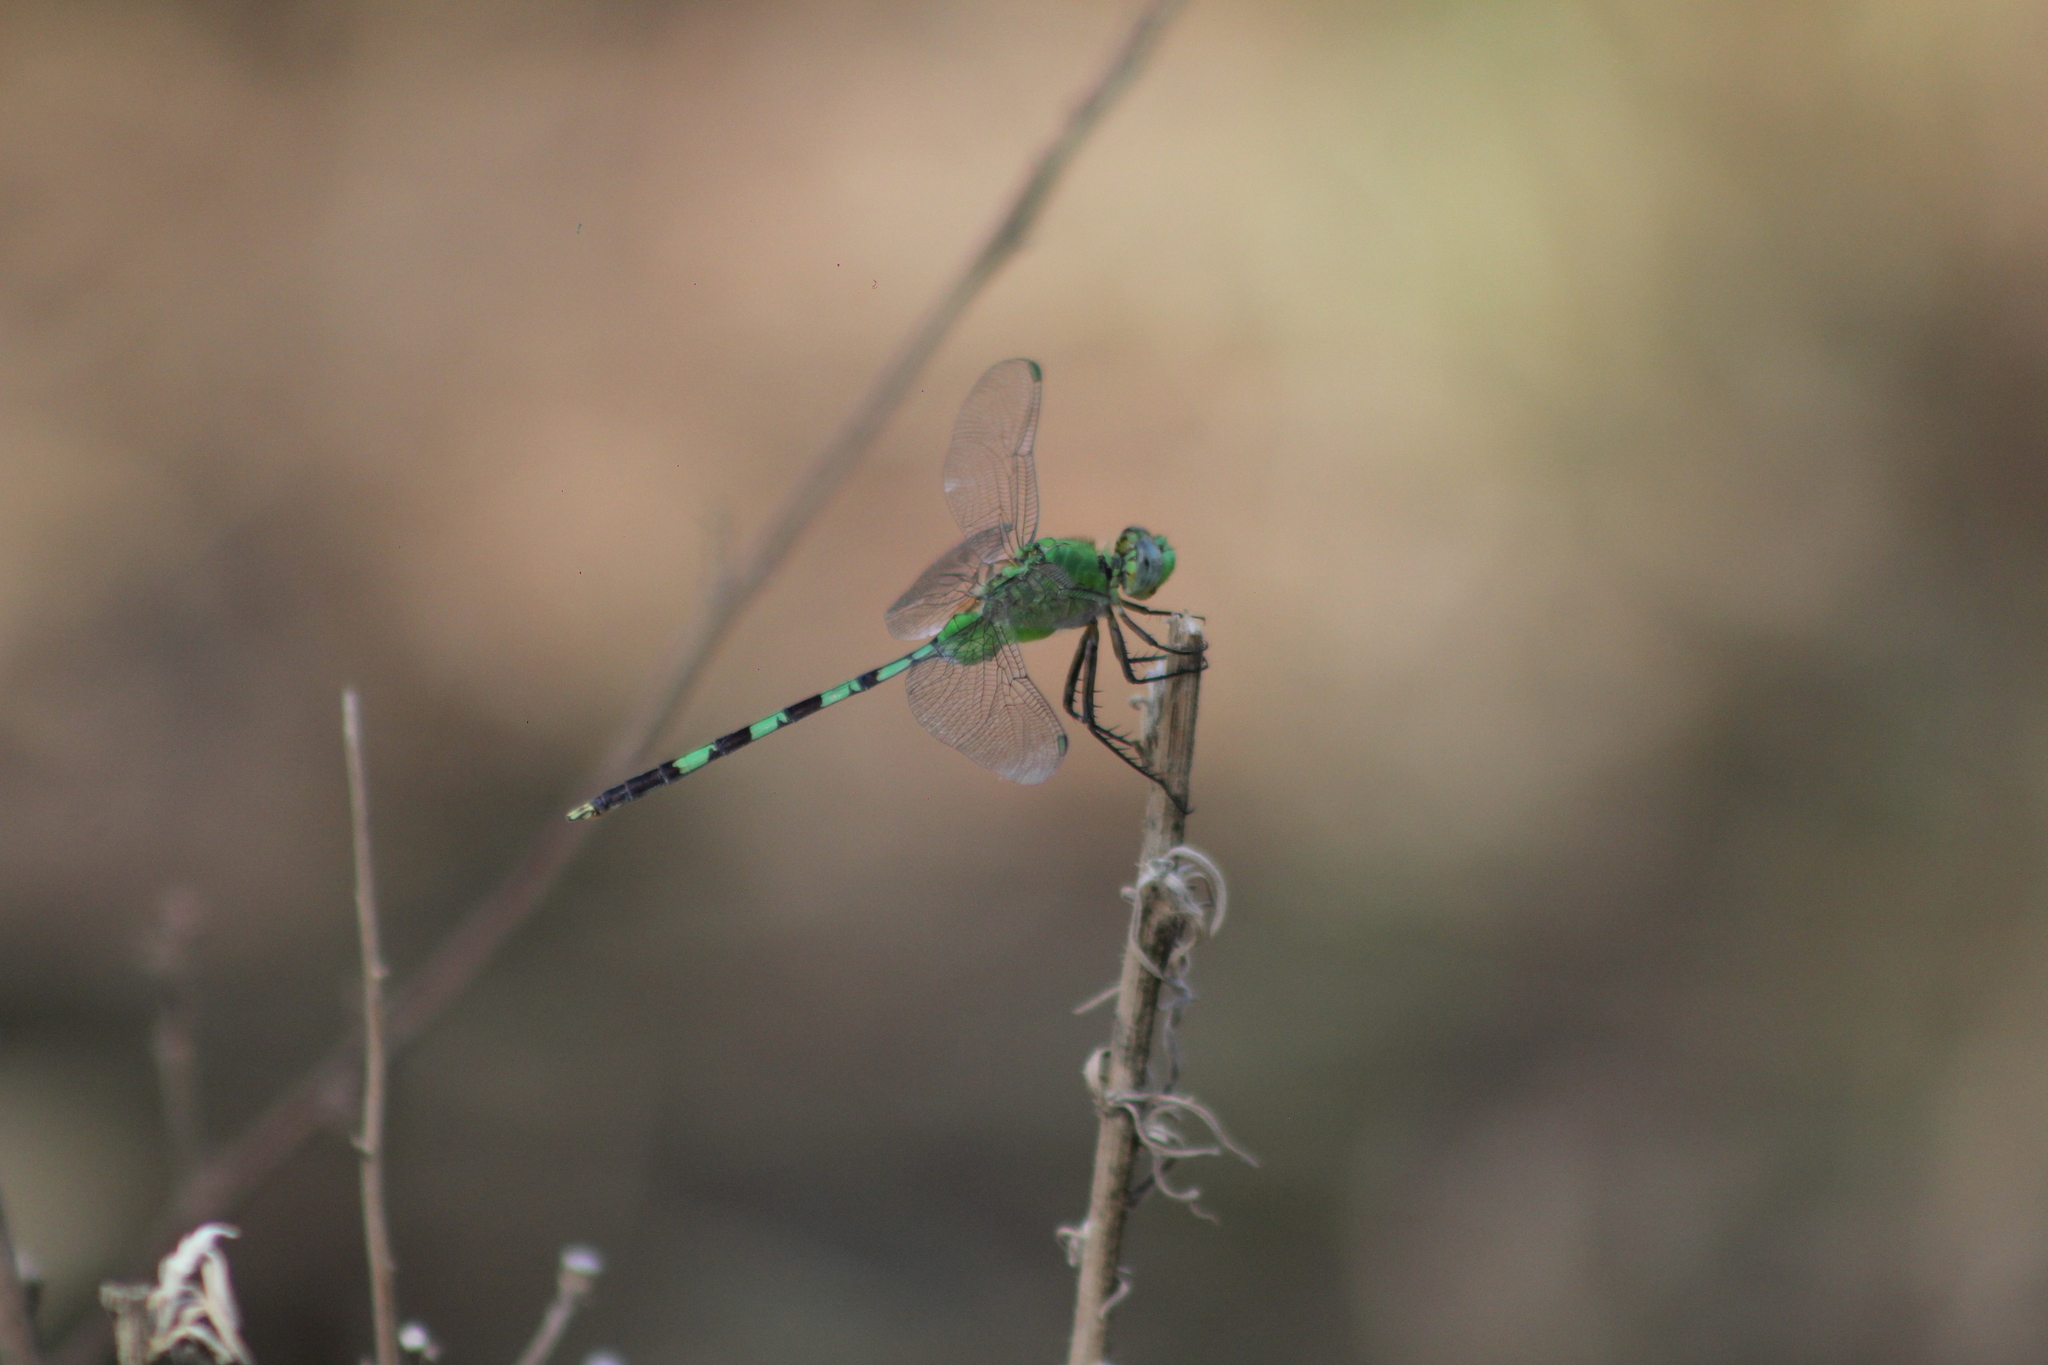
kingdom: Animalia
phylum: Arthropoda
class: Insecta
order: Odonata
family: Libellulidae
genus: Erythemis
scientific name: Erythemis vesiculosa
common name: Great pondhawk
